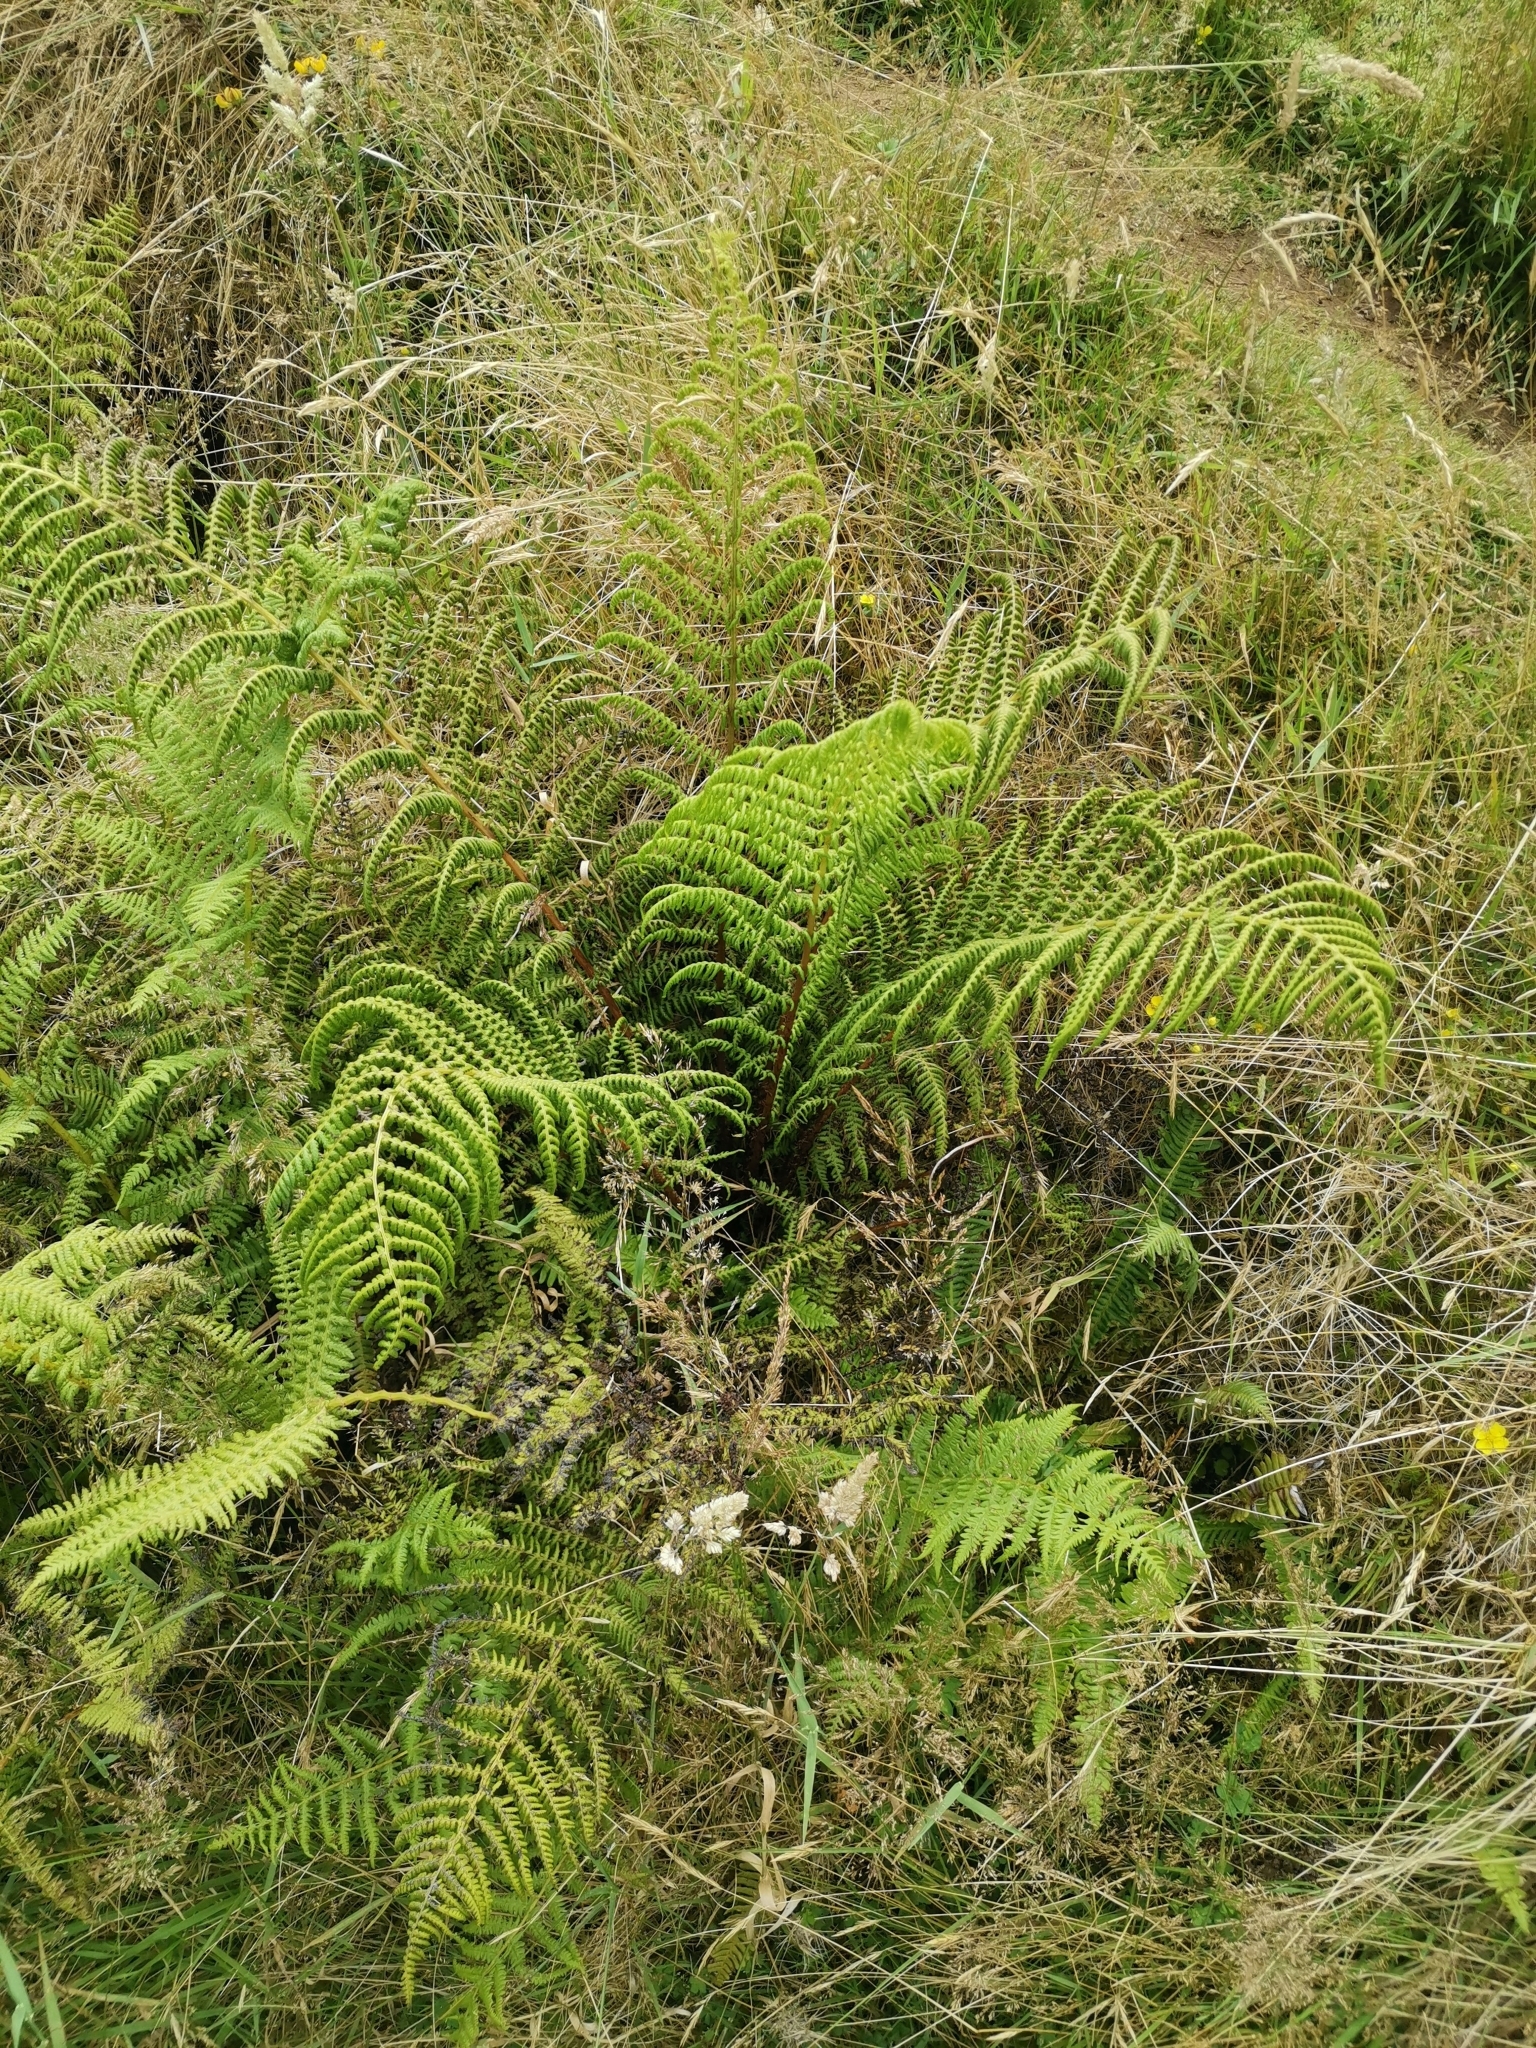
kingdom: Plantae
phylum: Tracheophyta
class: Polypodiopsida
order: Polypodiales
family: Athyriaceae
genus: Athyrium
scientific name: Athyrium filix-femina
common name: Lady fern
